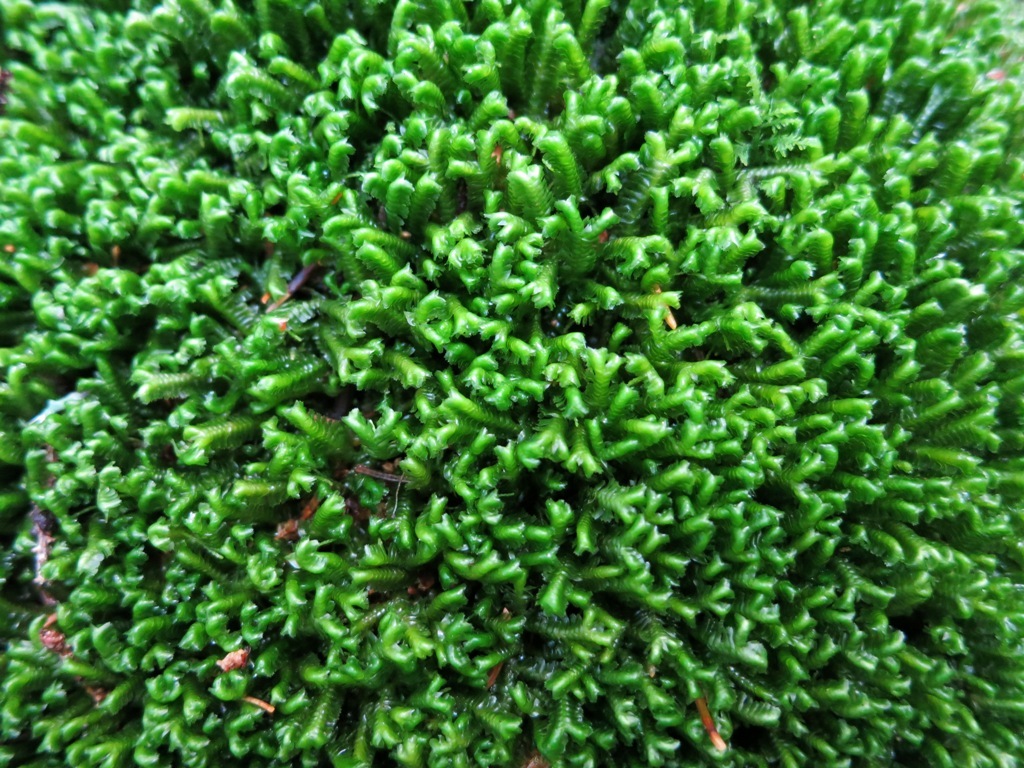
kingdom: Plantae
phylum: Marchantiophyta
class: Jungermanniopsida
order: Jungermanniales
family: Lepidoziaceae
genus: Bazzania
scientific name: Bazzania trilobata
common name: Three-lobed whipwort
